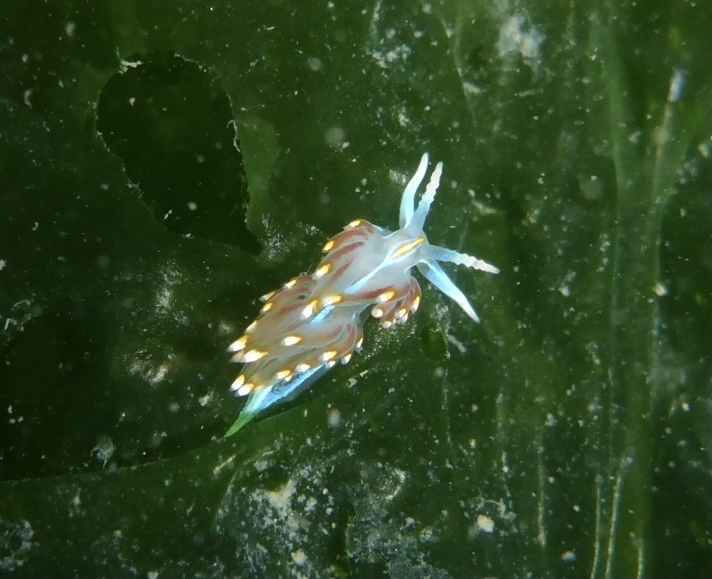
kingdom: Animalia
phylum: Mollusca
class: Gastropoda
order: Nudibranchia
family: Myrrhinidae
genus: Hermissenda
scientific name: Hermissenda opalescens
